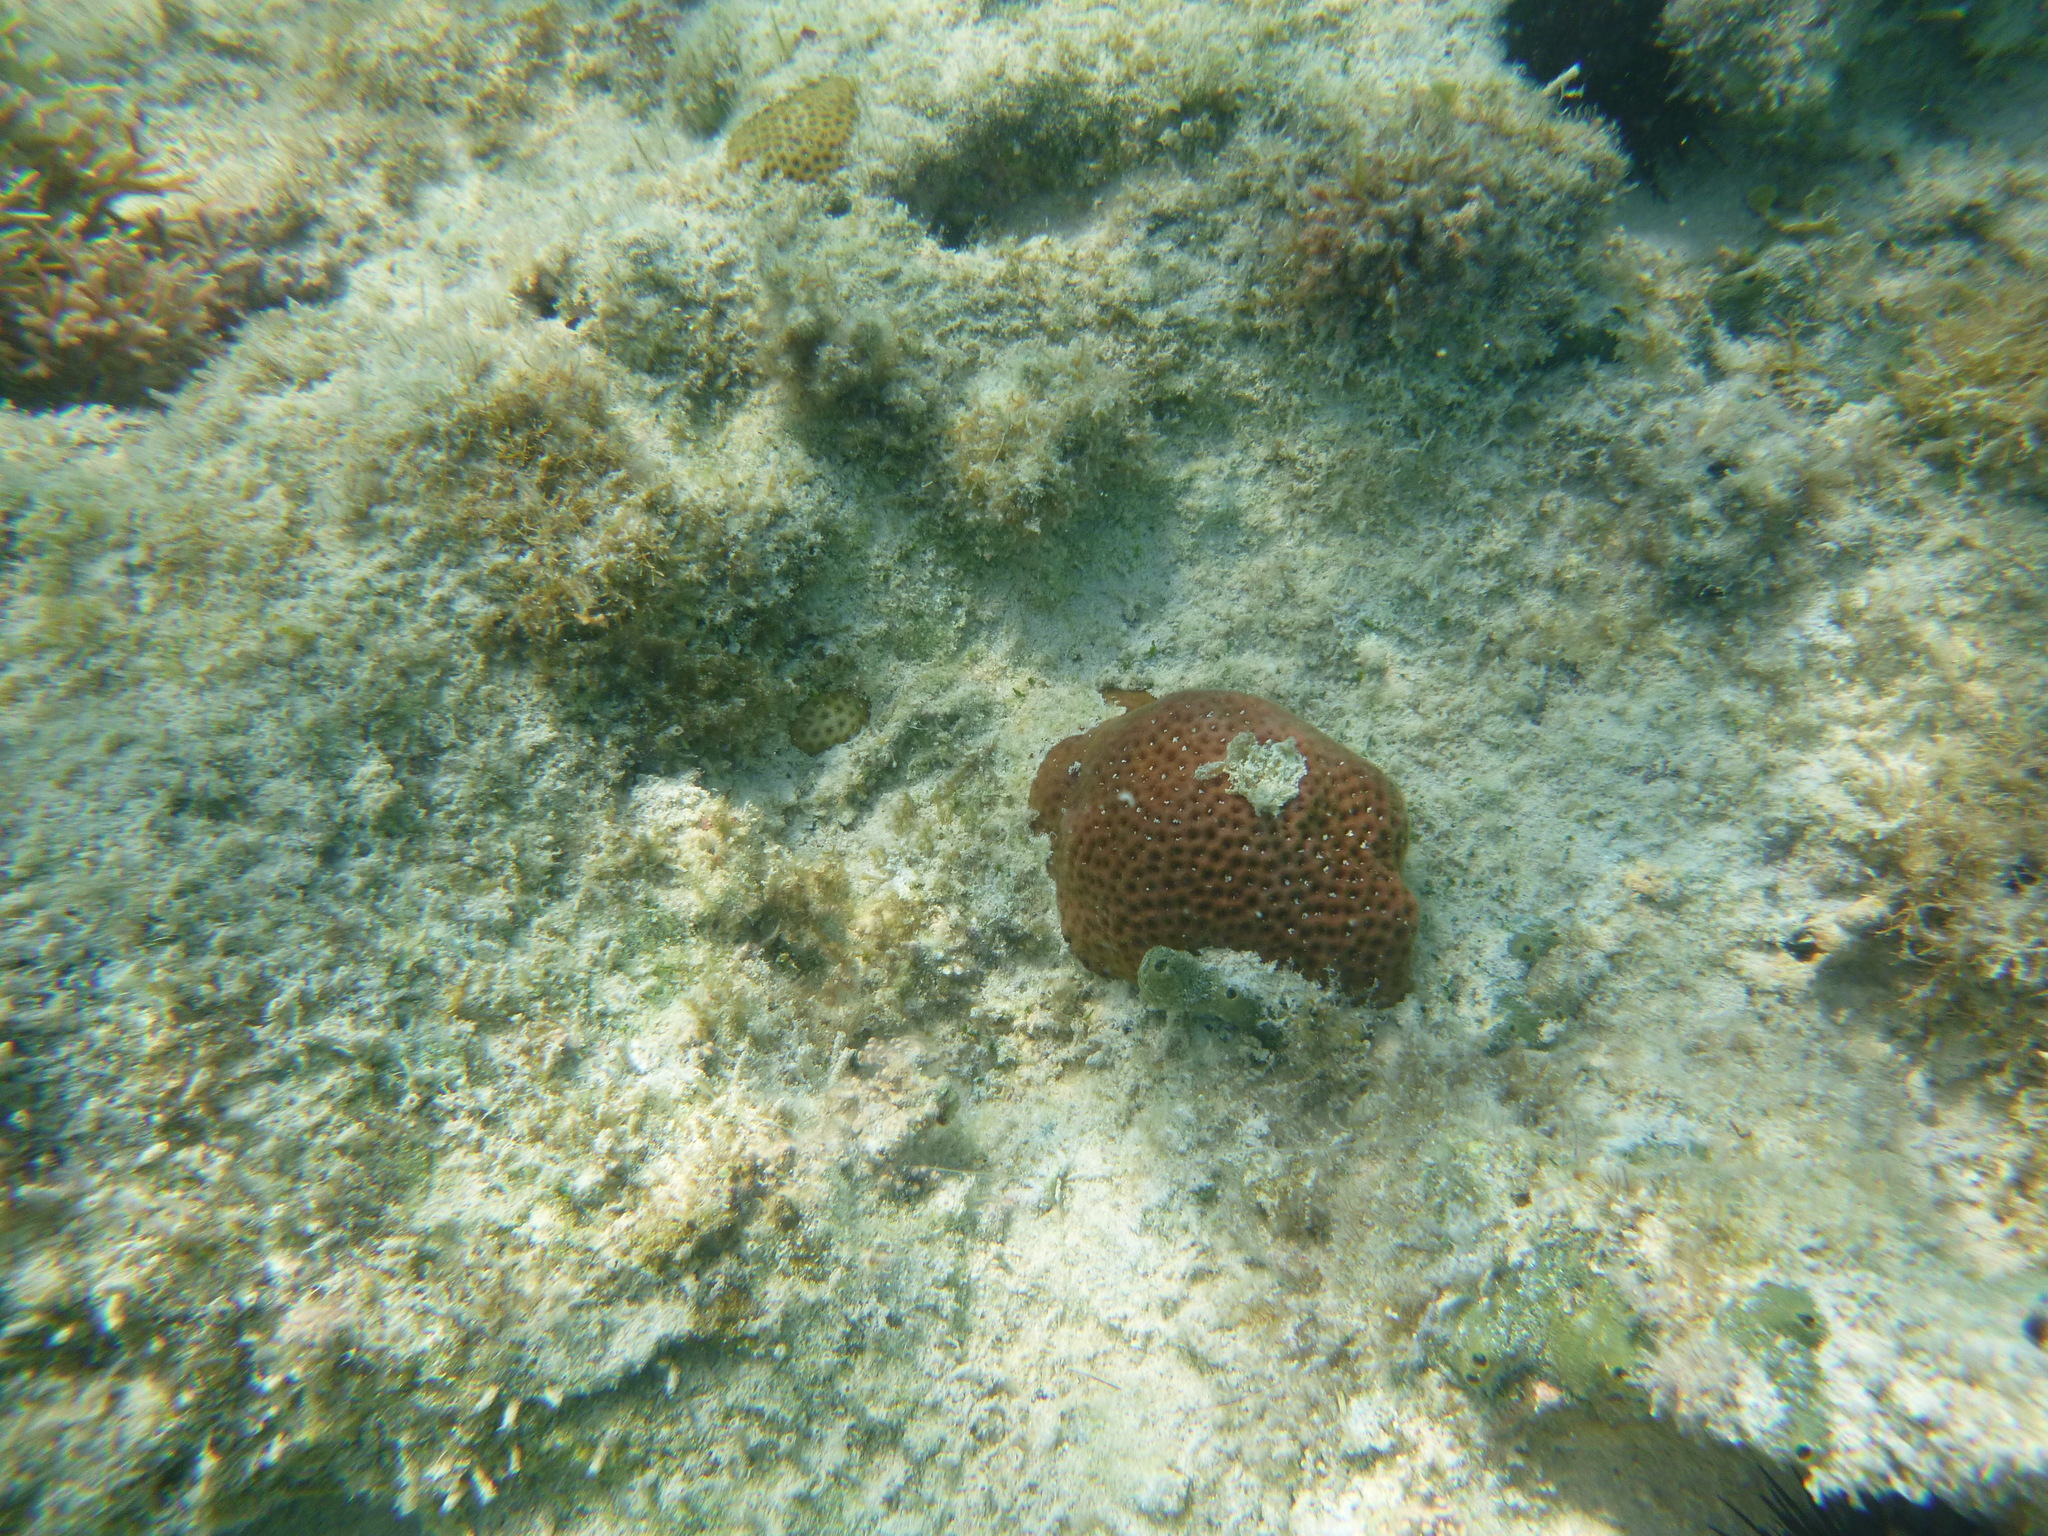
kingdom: Animalia
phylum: Cnidaria
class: Anthozoa
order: Scleractinia
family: Rhizangiidae
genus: Siderastrea
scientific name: Siderastrea siderea
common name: Massive starlet coral
